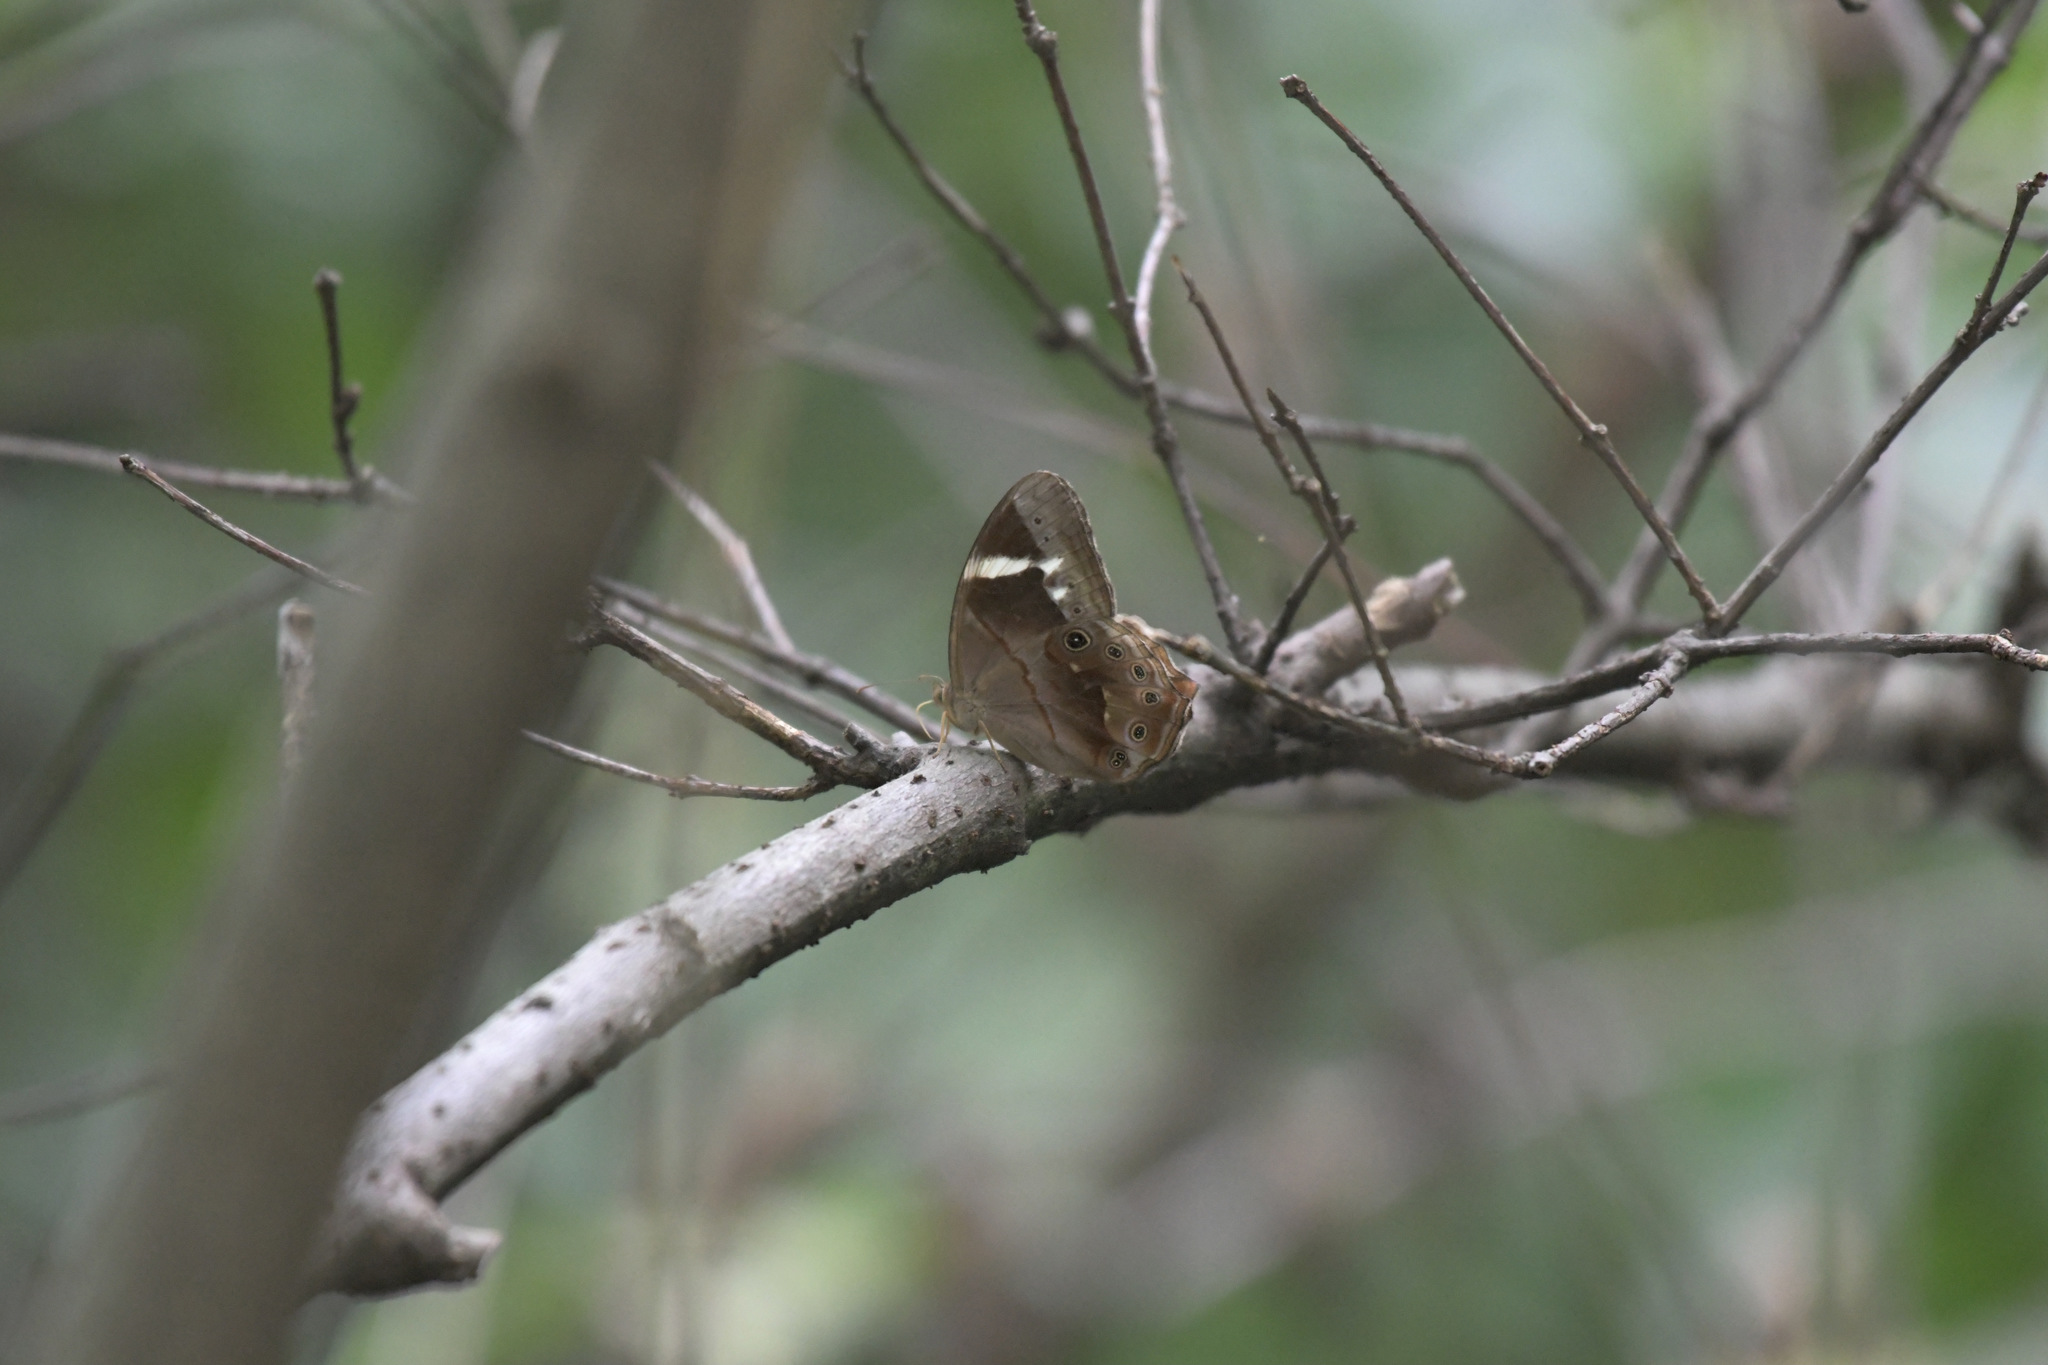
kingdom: Animalia
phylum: Arthropoda
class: Insecta
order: Lepidoptera
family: Nymphalidae
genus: Lethe
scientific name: Lethe chandica
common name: Angled red forester
